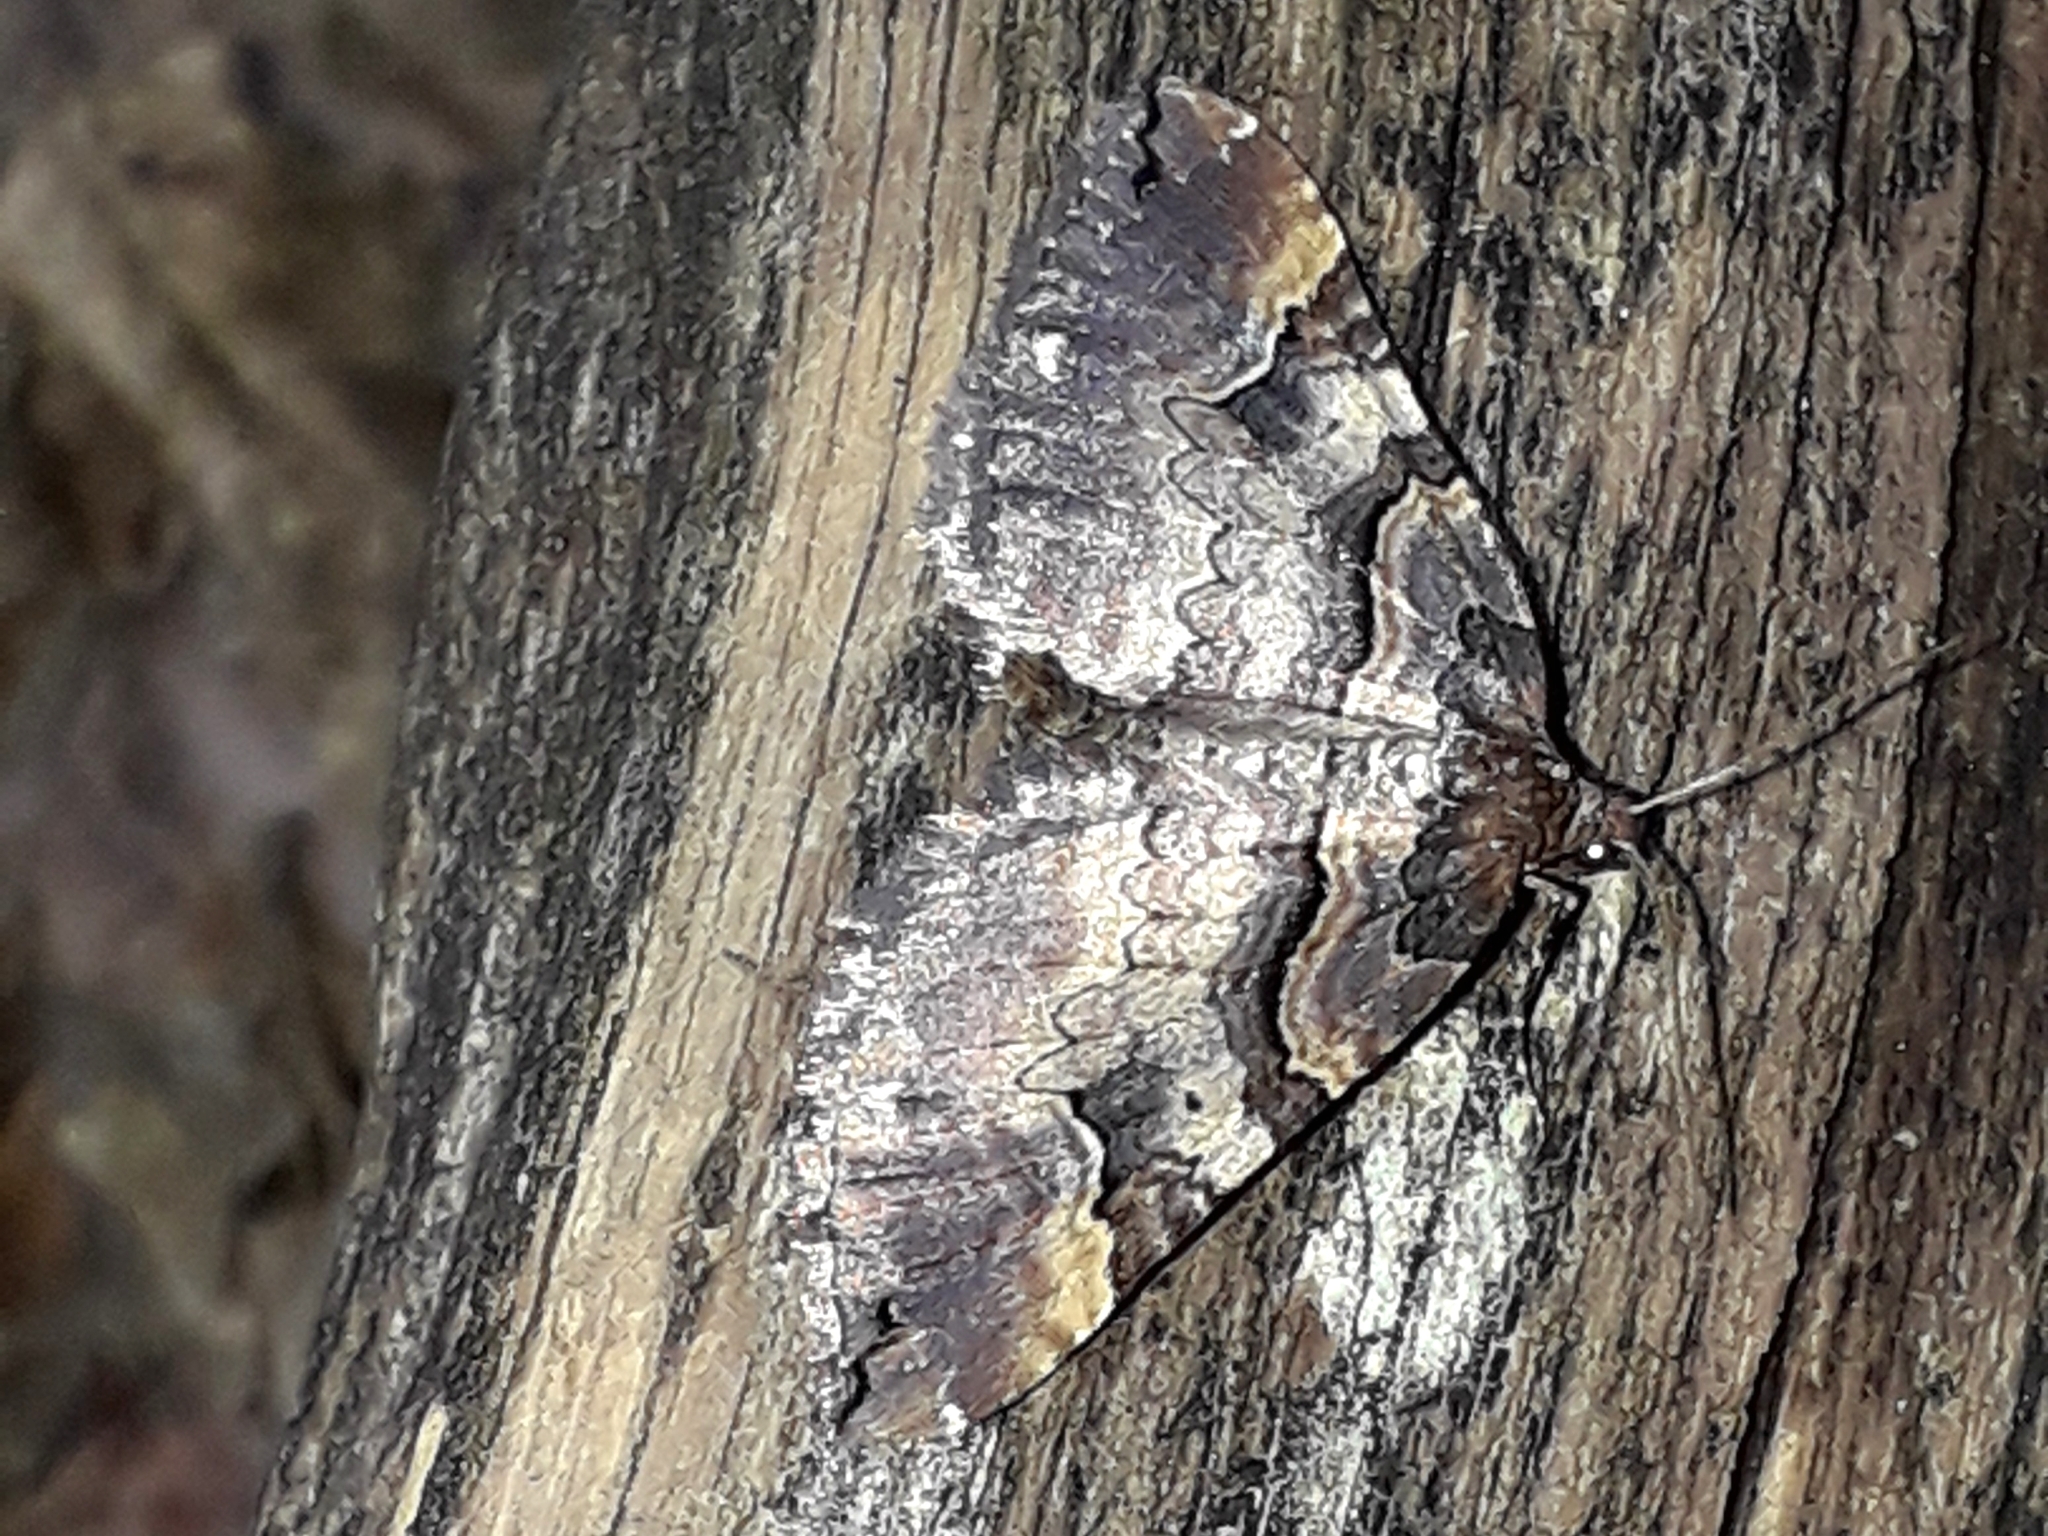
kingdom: Animalia
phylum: Arthropoda
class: Insecta
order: Lepidoptera
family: Geometridae
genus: Anticlea
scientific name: Anticlea badiata
